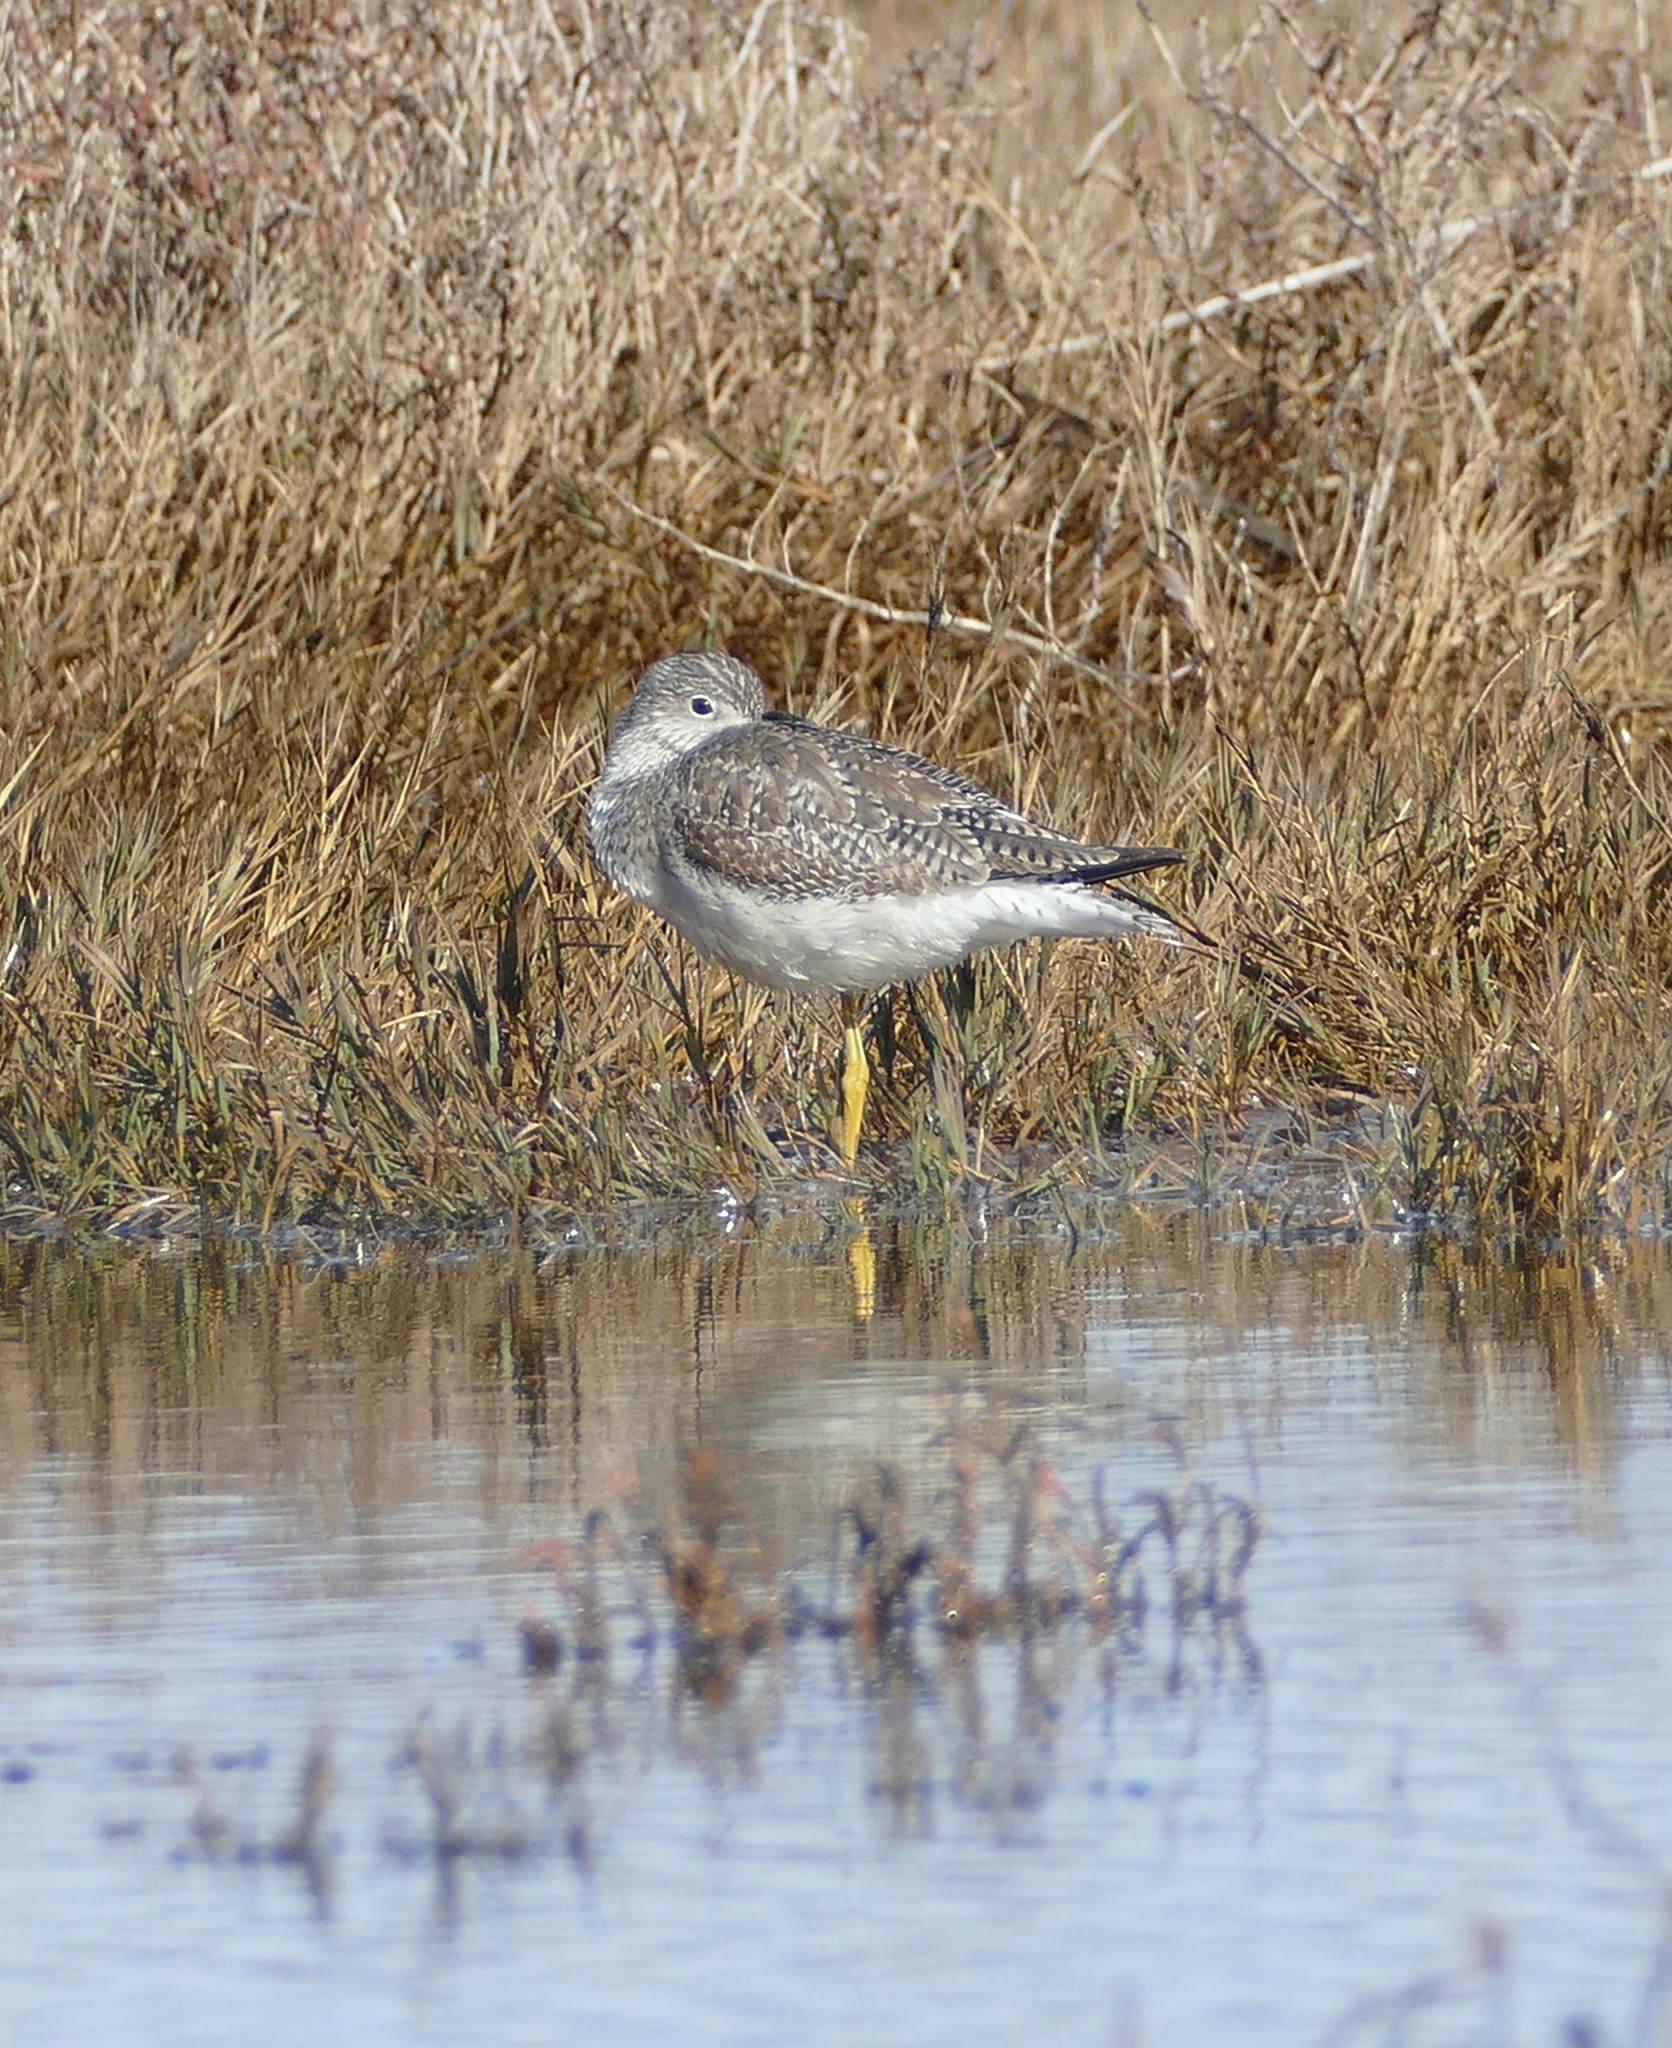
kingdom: Animalia
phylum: Chordata
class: Aves
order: Charadriiformes
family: Scolopacidae
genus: Tringa
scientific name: Tringa melanoleuca
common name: Greater yellowlegs
